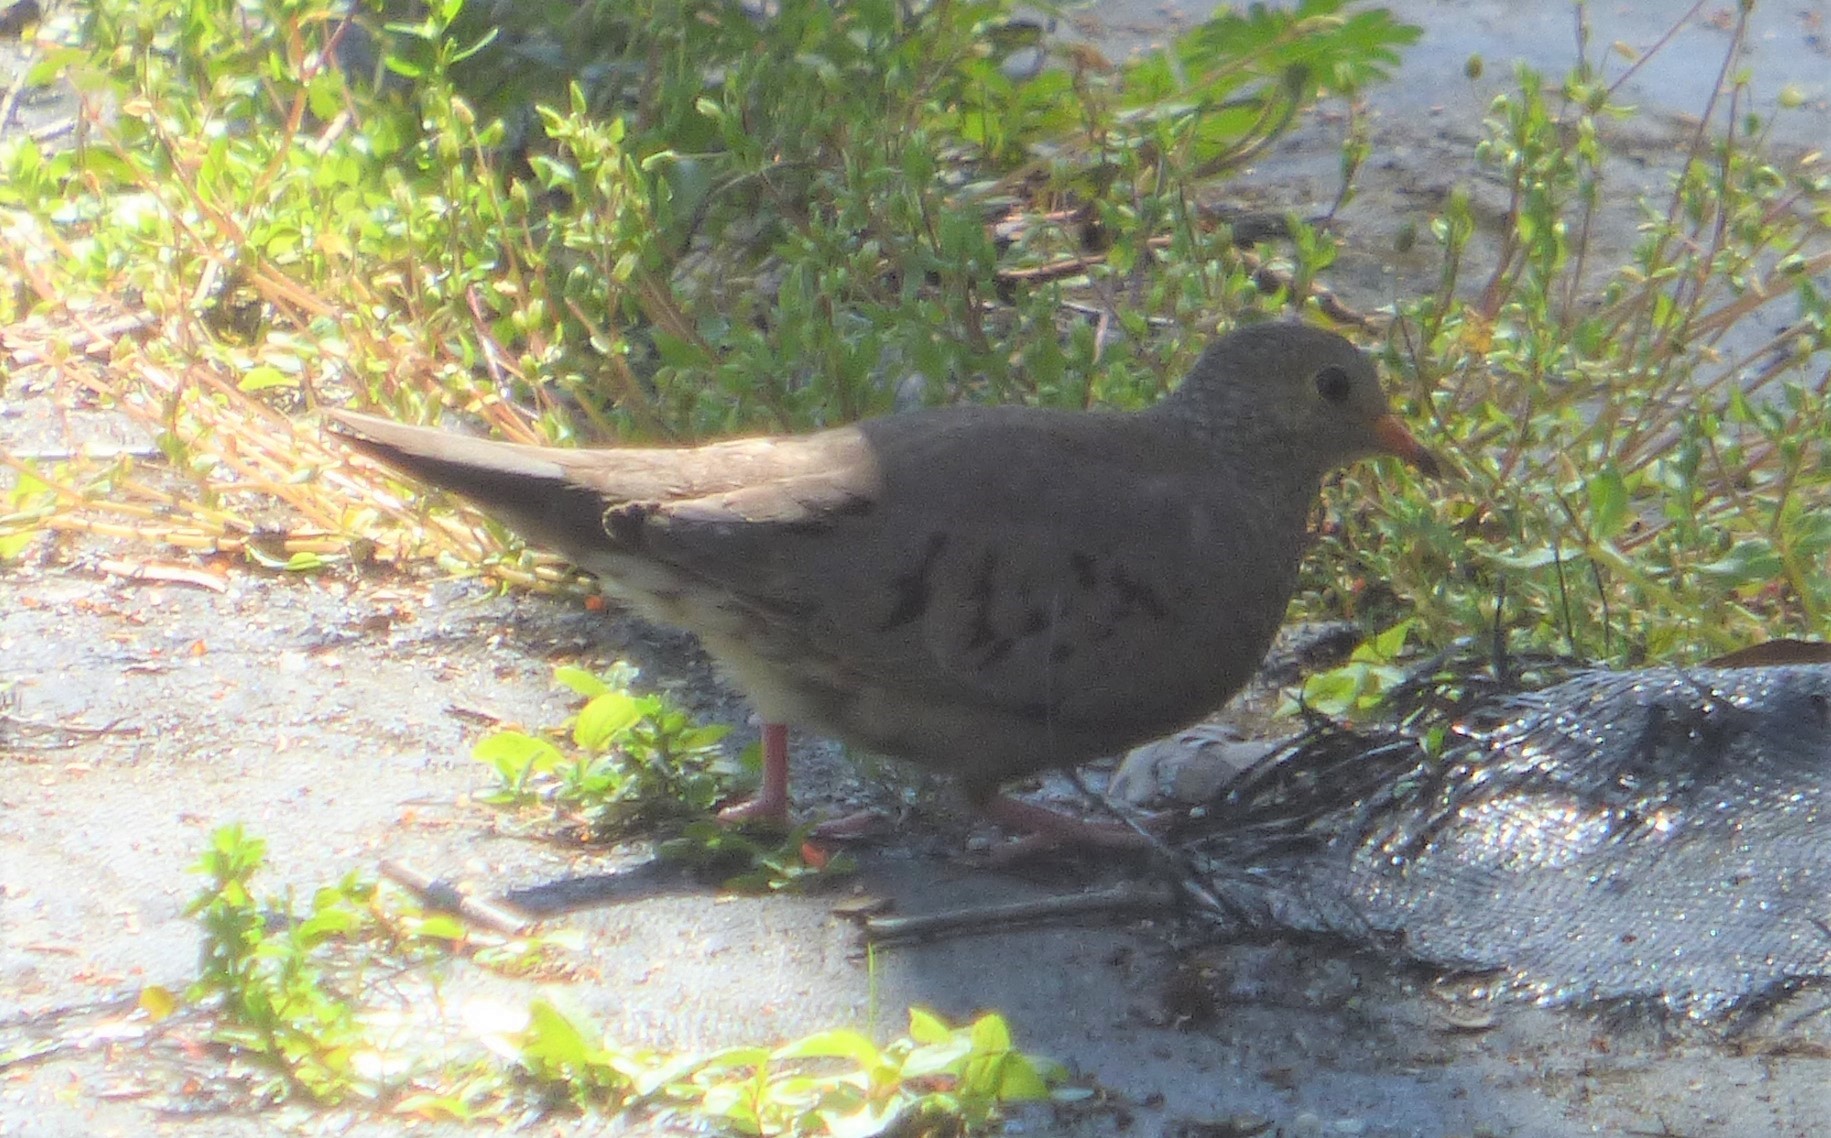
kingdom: Animalia
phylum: Chordata
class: Aves
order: Columbiformes
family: Columbidae
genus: Columbina
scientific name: Columbina passerina
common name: Common ground-dove
